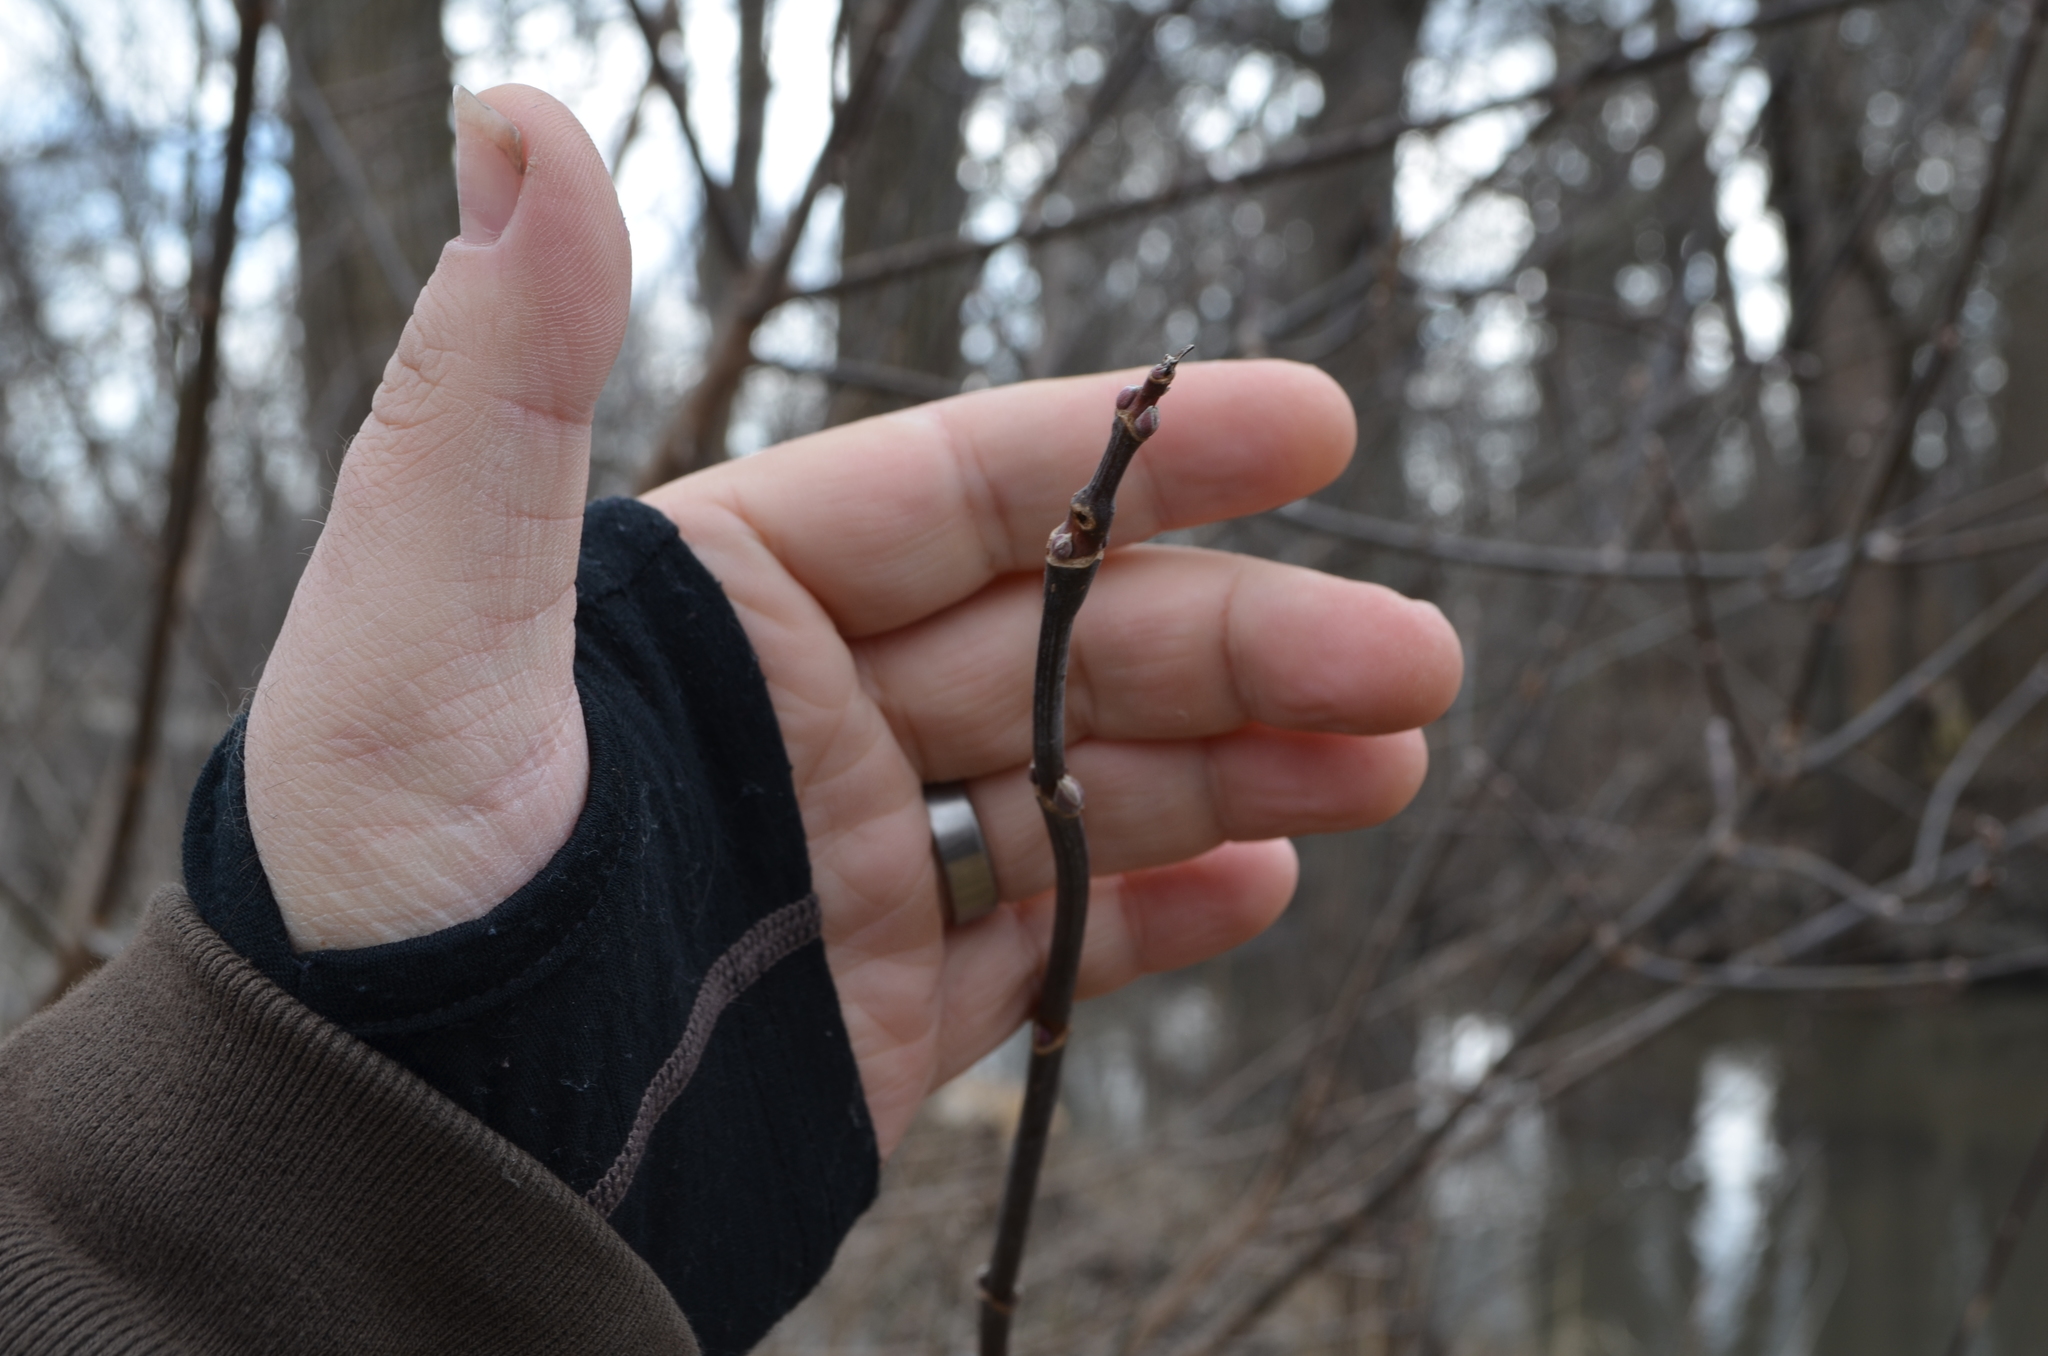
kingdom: Plantae
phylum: Tracheophyta
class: Magnoliopsida
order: Sapindales
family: Sapindaceae
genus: Acer
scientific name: Acer negundo
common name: Ashleaf maple
